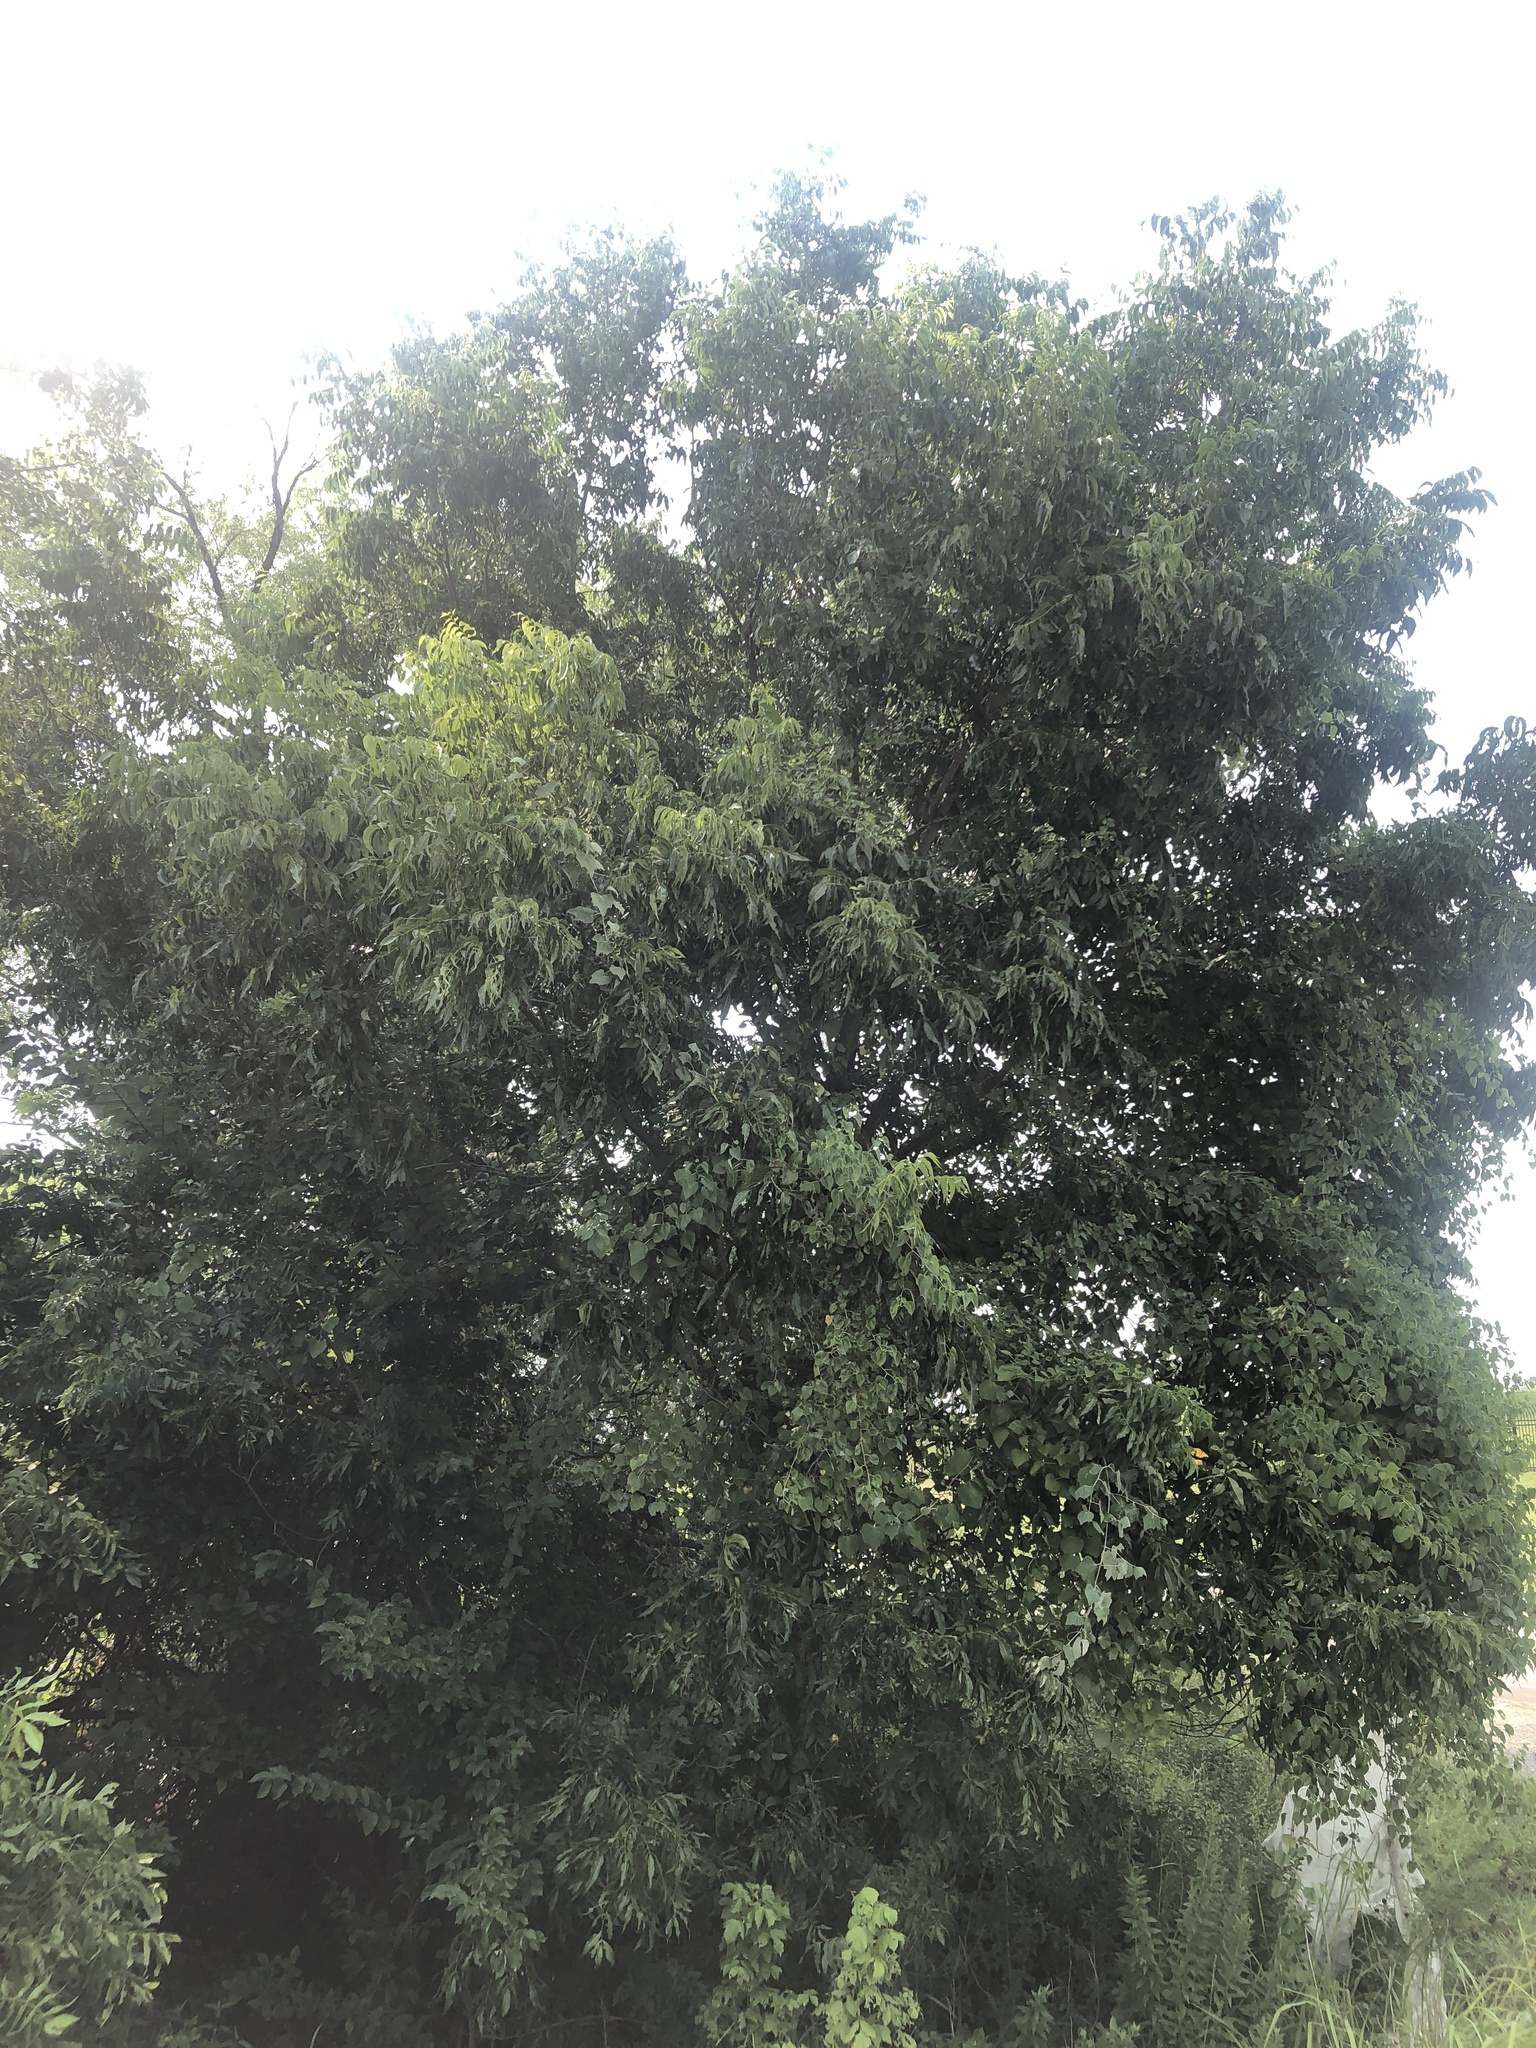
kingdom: Plantae
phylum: Tracheophyta
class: Magnoliopsida
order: Fagales
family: Juglandaceae
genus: Carya
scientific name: Carya illinoinensis
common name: Pecan
